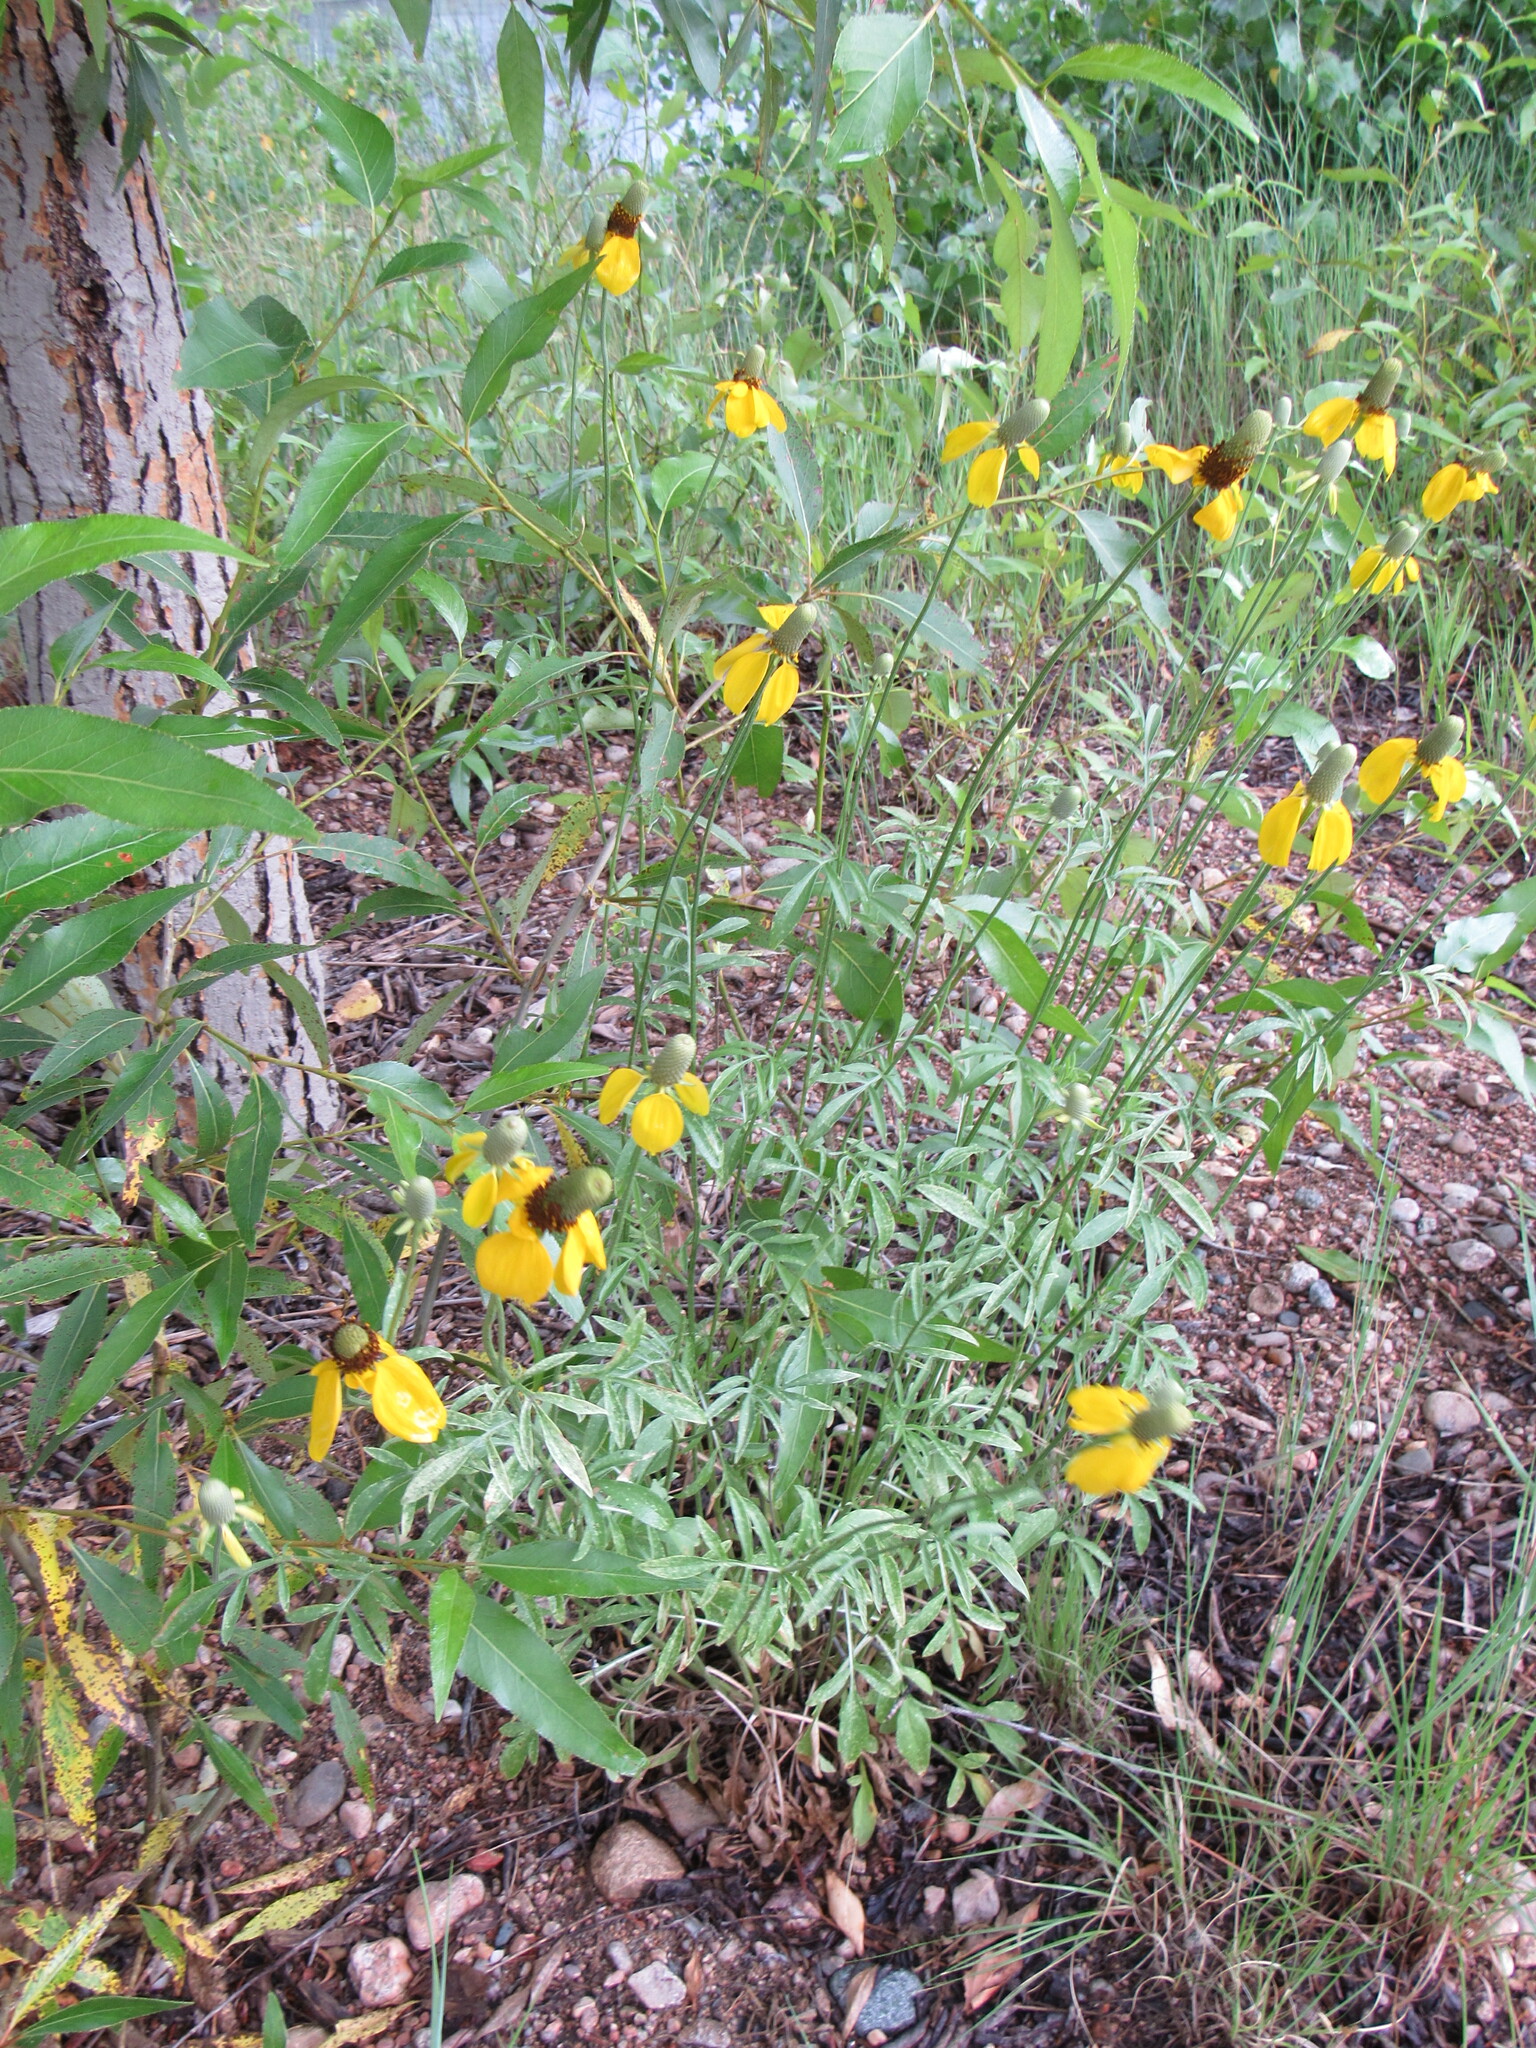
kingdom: Plantae
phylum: Tracheophyta
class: Magnoliopsida
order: Asterales
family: Asteraceae
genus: Ratibida
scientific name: Ratibida columnifera
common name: Prairie coneflower
